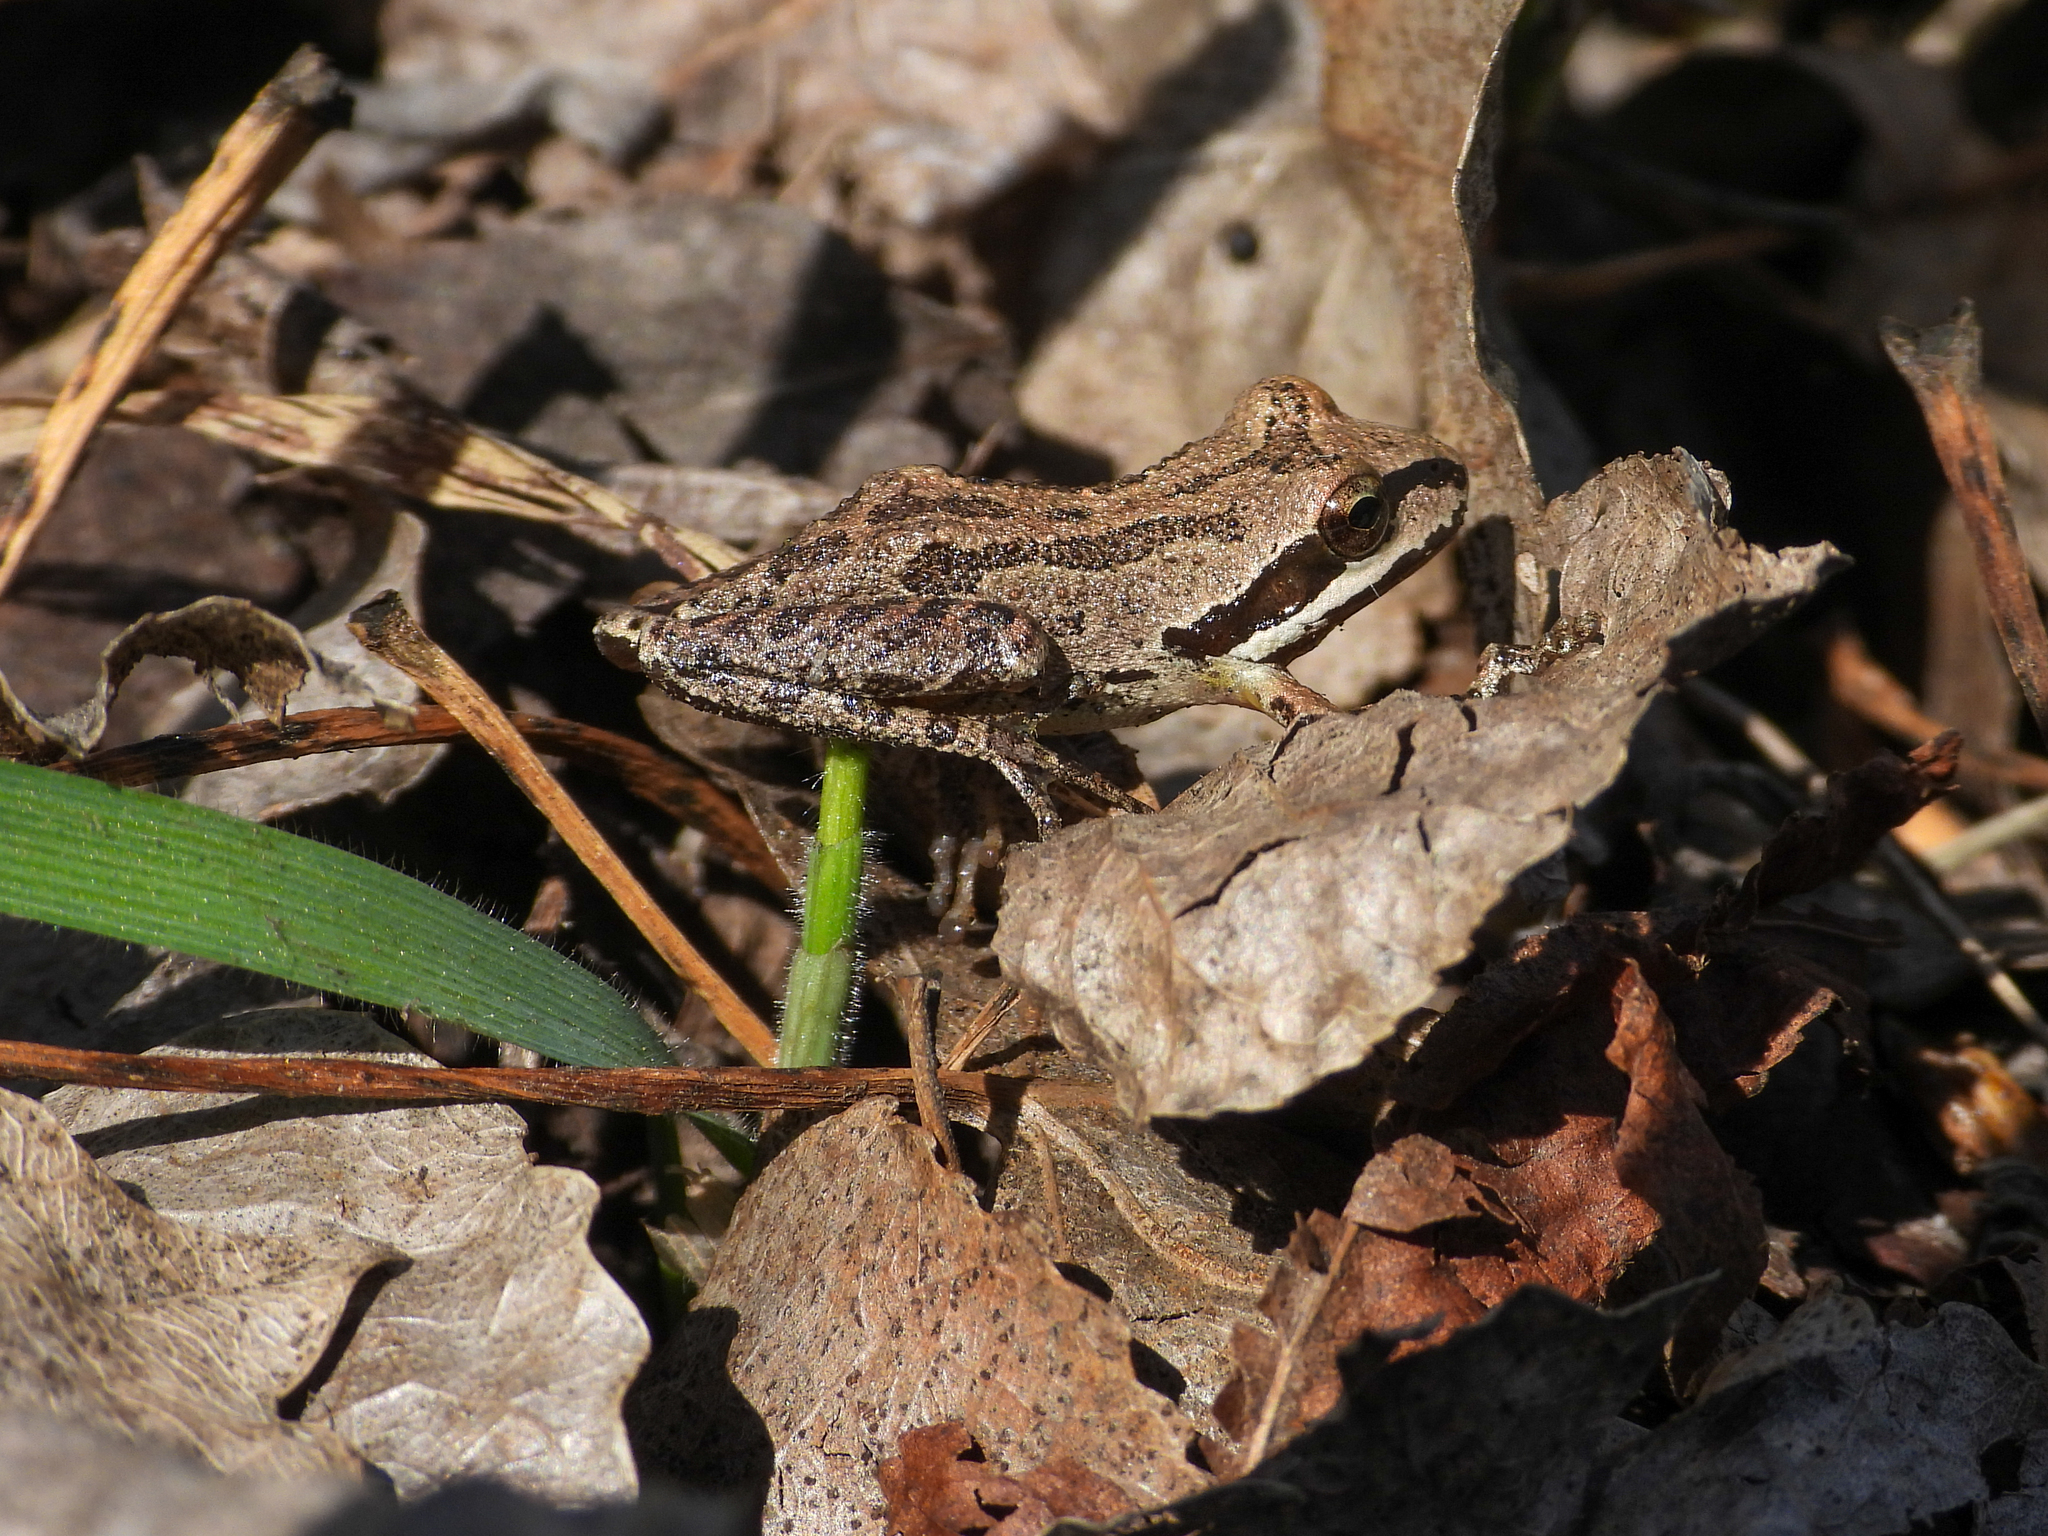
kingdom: Animalia
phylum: Chordata
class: Amphibia
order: Anura
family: Hylidae
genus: Pseudacris
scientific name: Pseudacris regilla
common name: Pacific chorus frog
